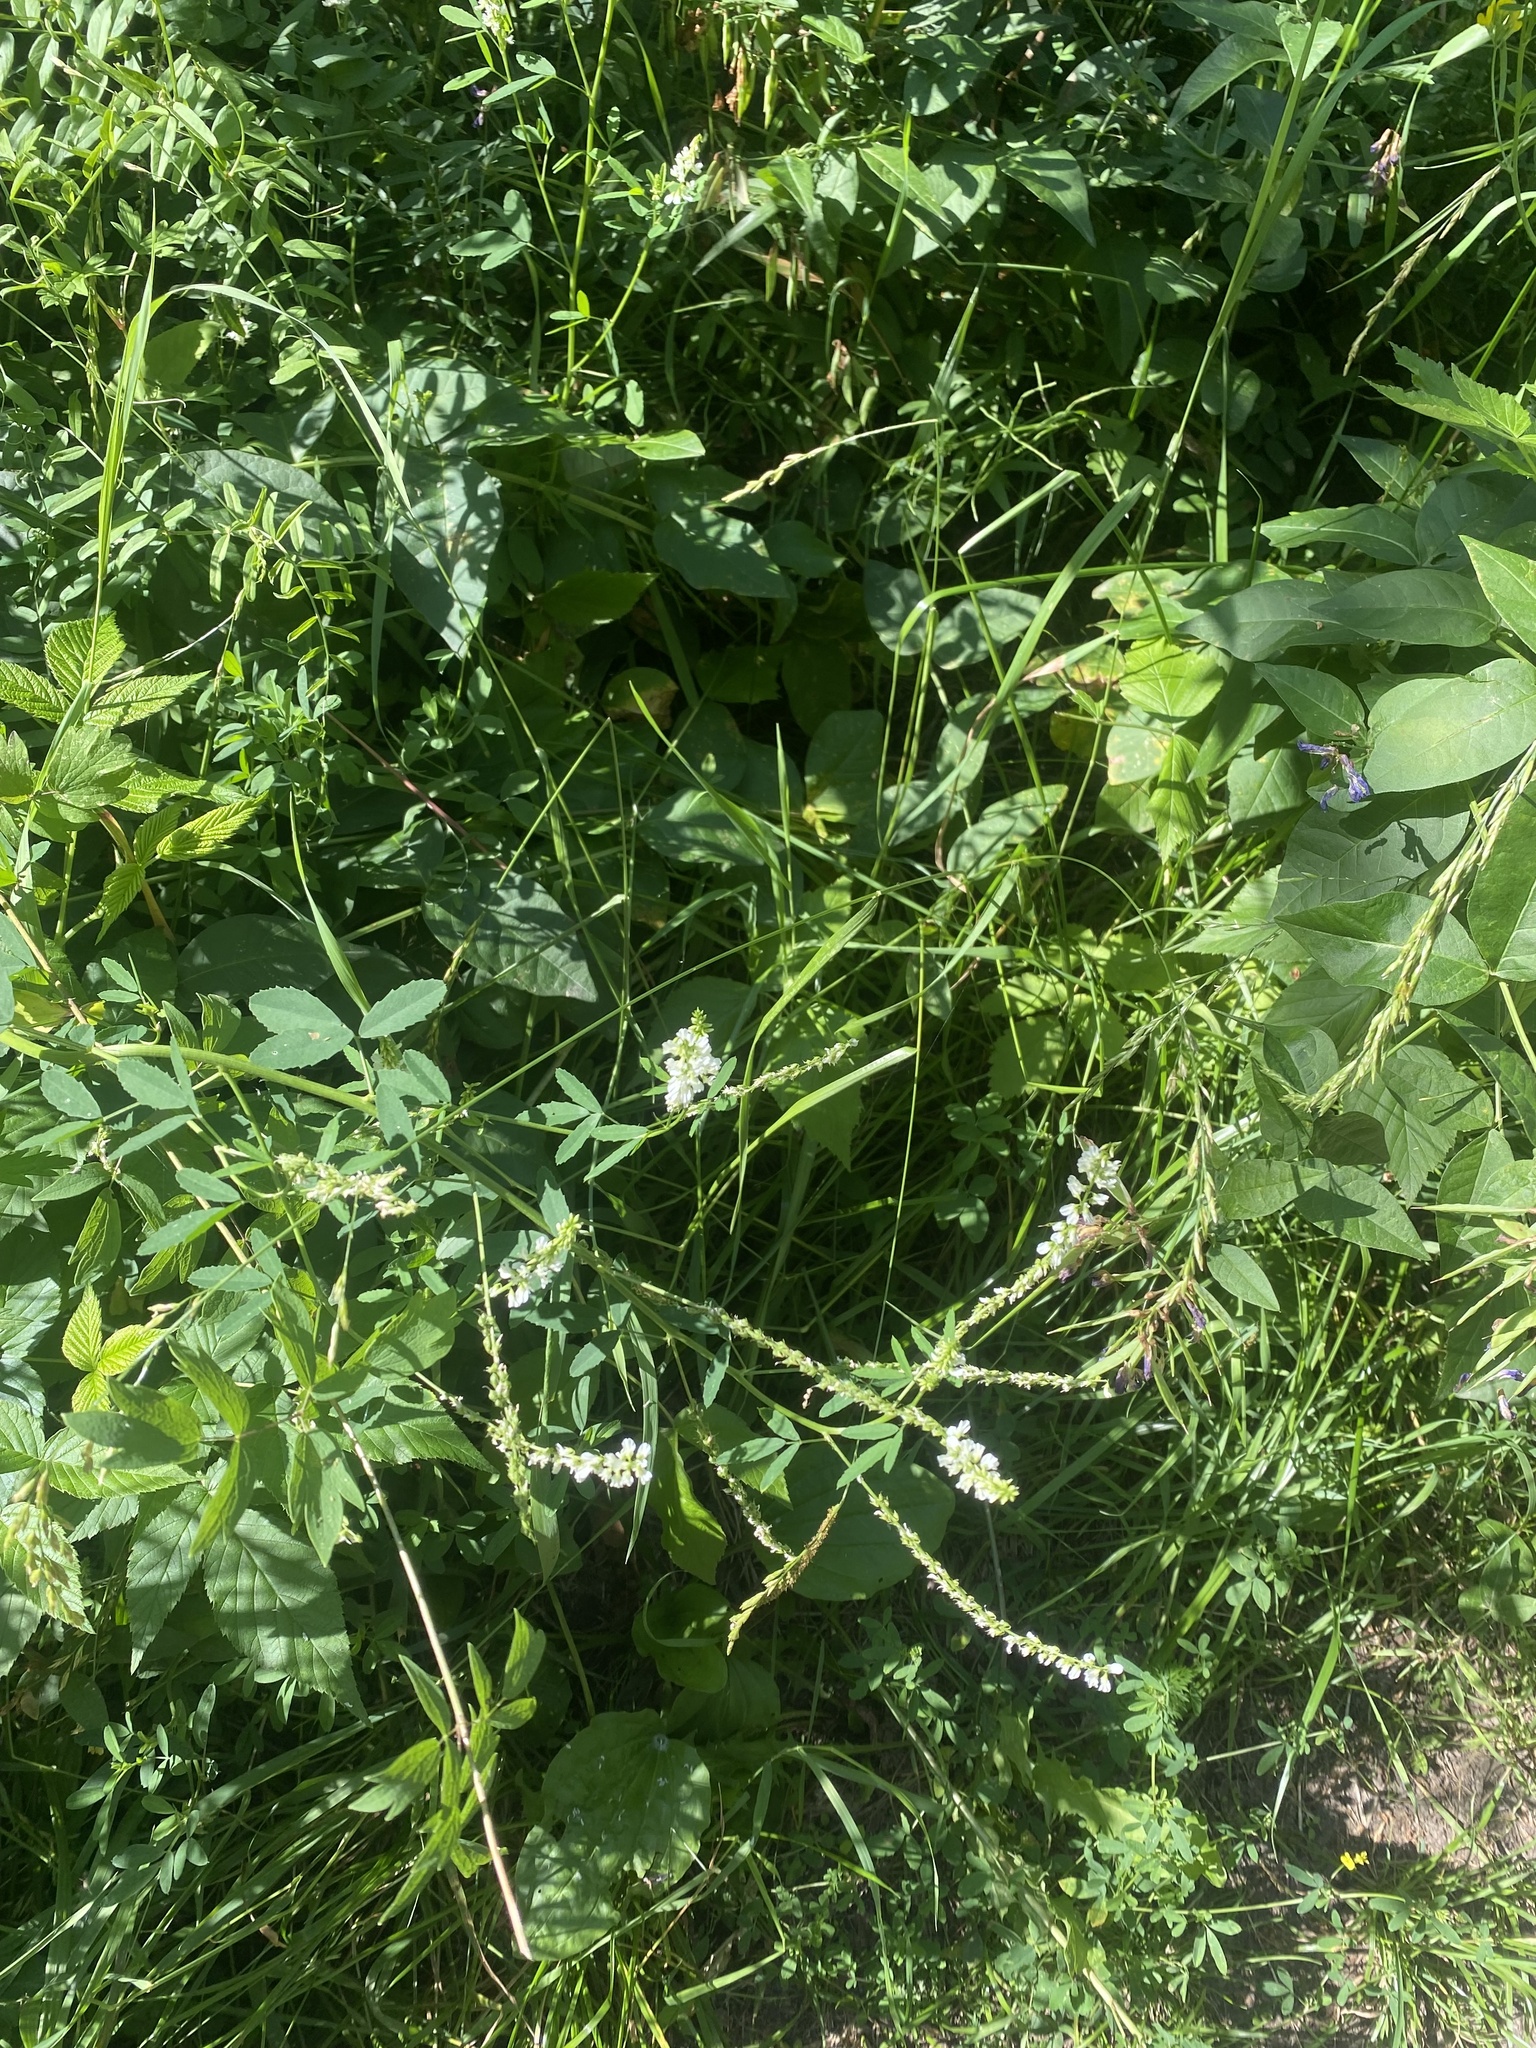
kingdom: Plantae
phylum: Tracheophyta
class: Magnoliopsida
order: Fabales
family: Fabaceae
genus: Melilotus
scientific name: Melilotus albus
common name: White melilot
